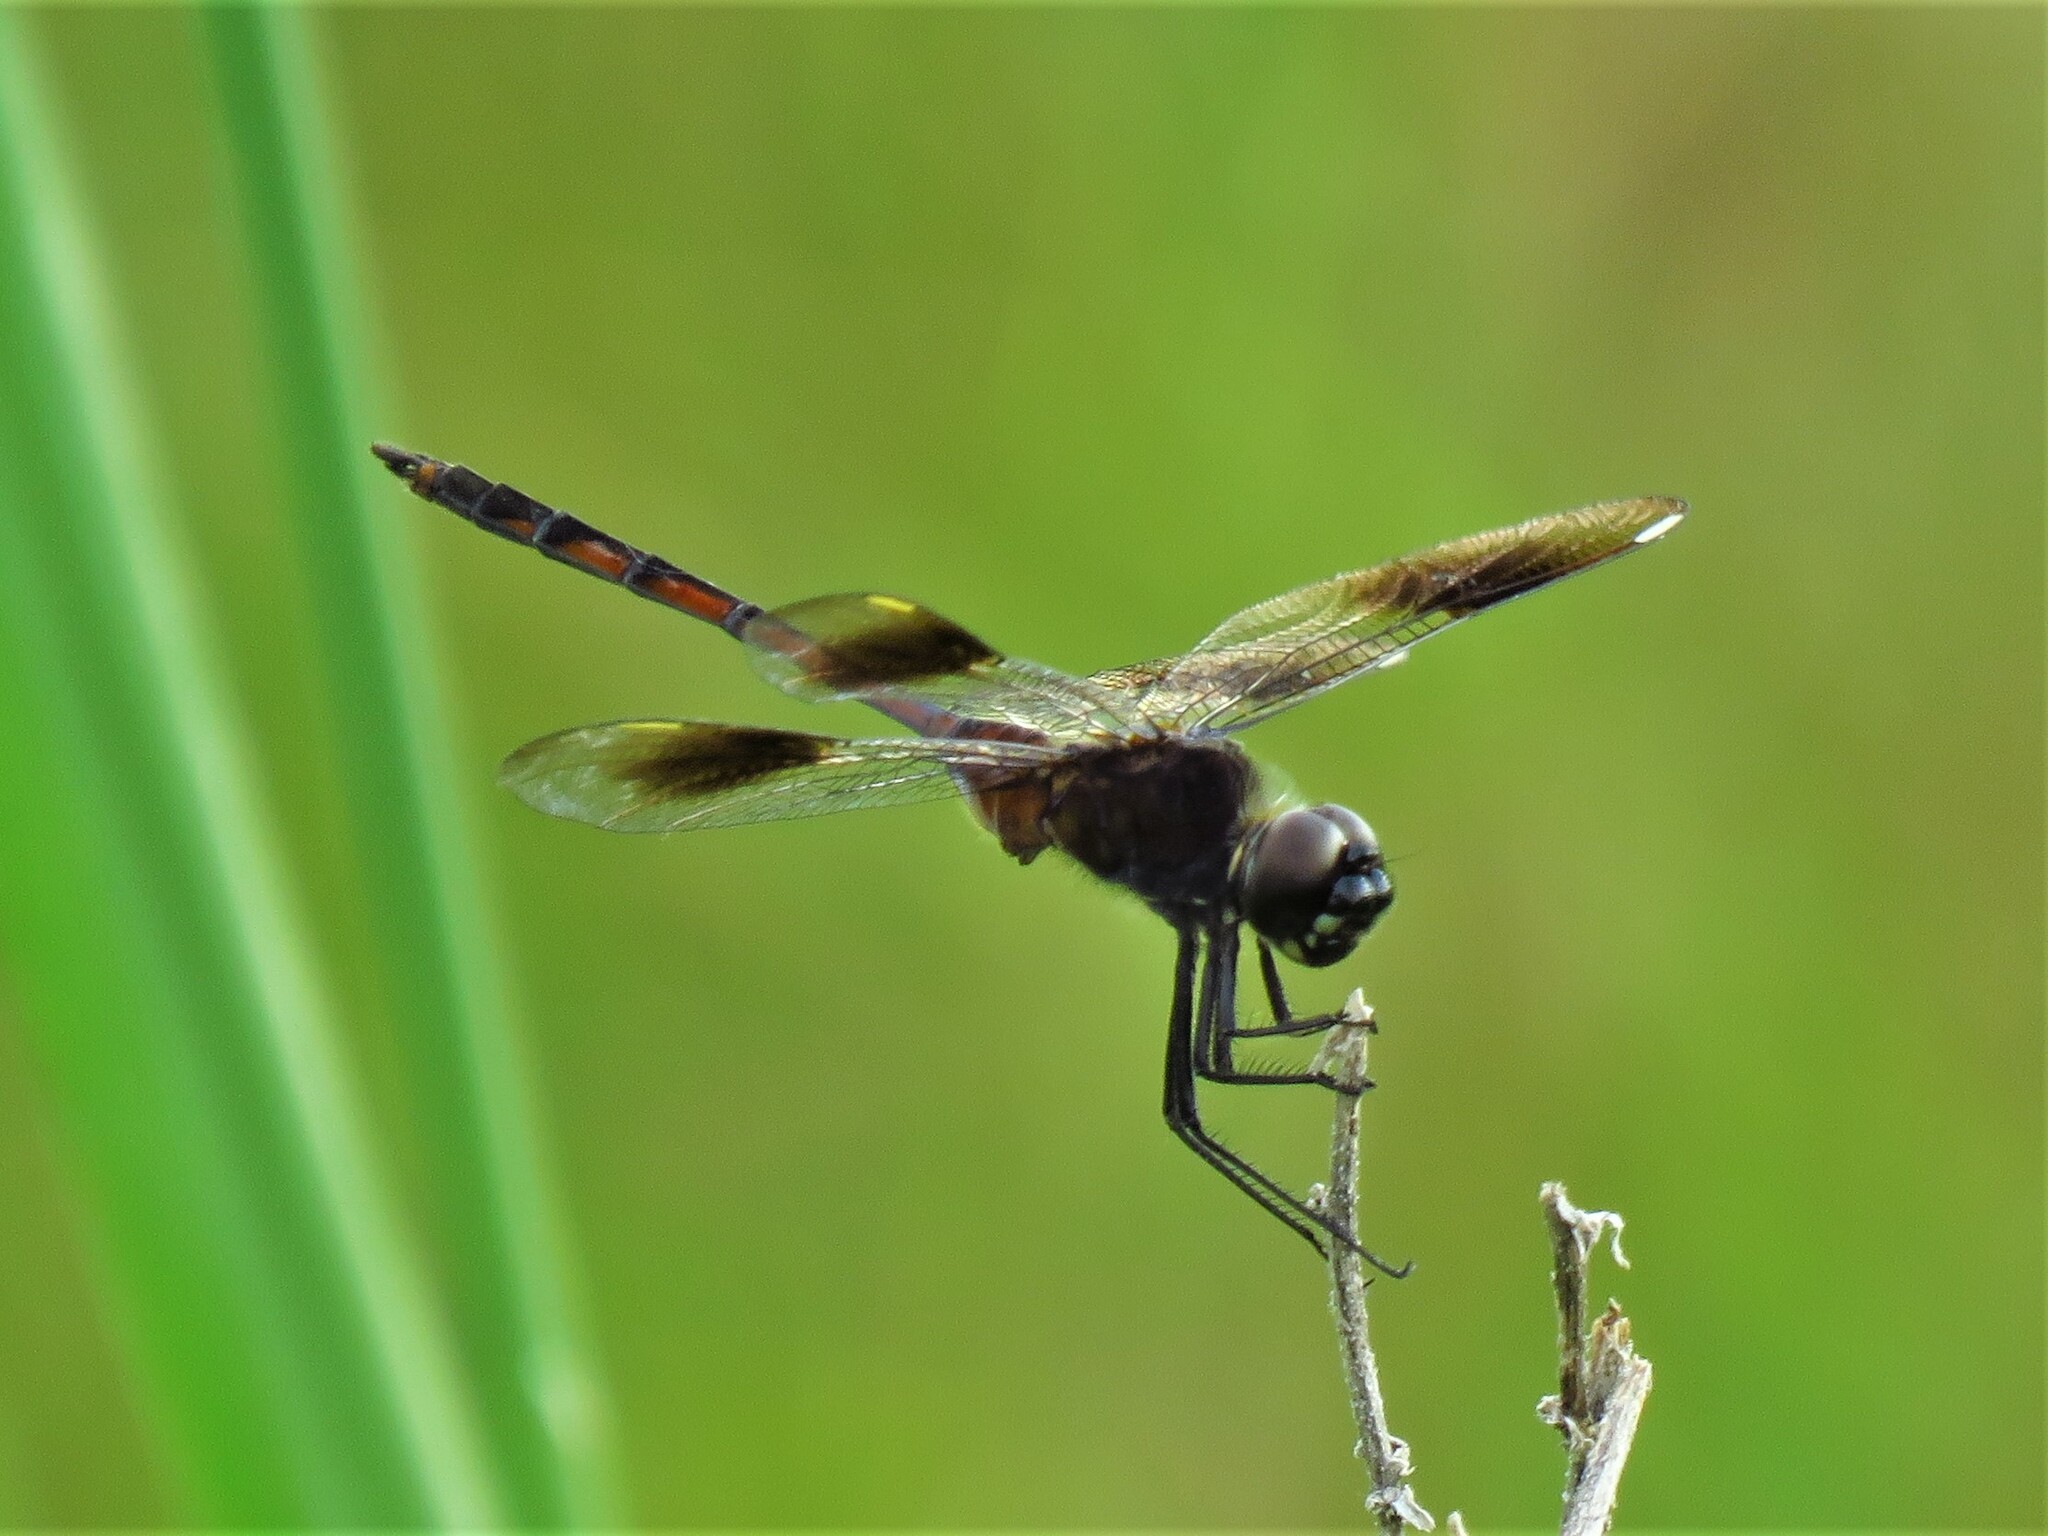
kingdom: Animalia
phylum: Arthropoda
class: Insecta
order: Odonata
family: Libellulidae
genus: Brachymesia
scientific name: Brachymesia gravida
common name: Four-spotted pennant
